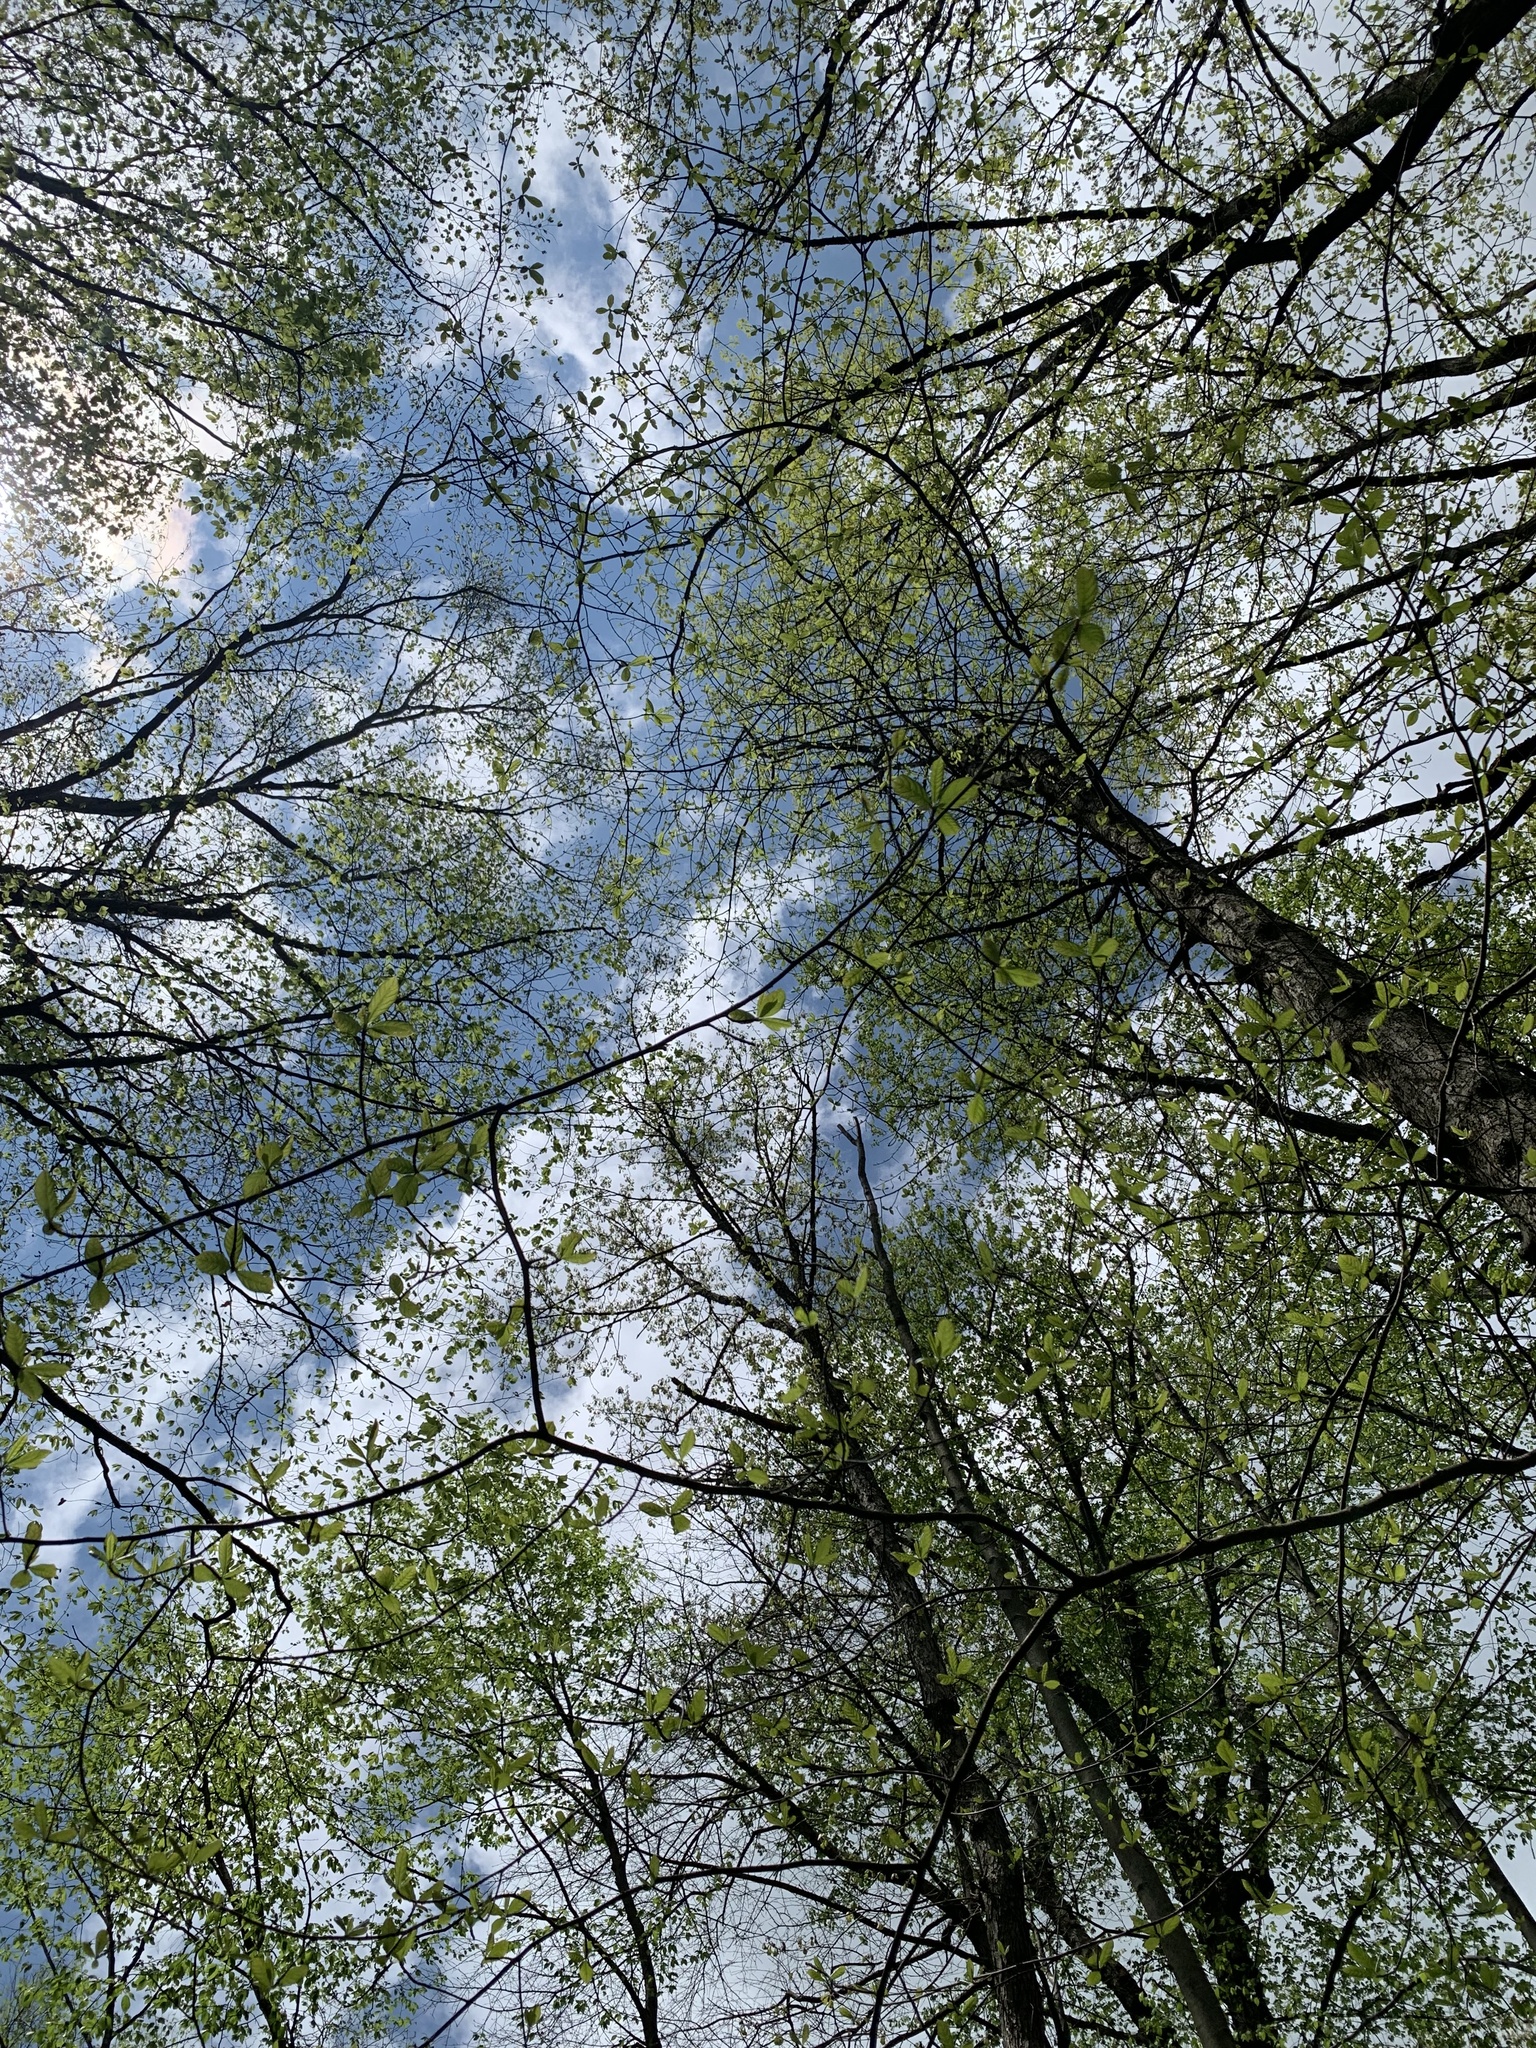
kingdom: Plantae
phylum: Tracheophyta
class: Magnoliopsida
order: Cornales
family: Nyssaceae
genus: Nyssa
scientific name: Nyssa sylvatica
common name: Black tupelo
